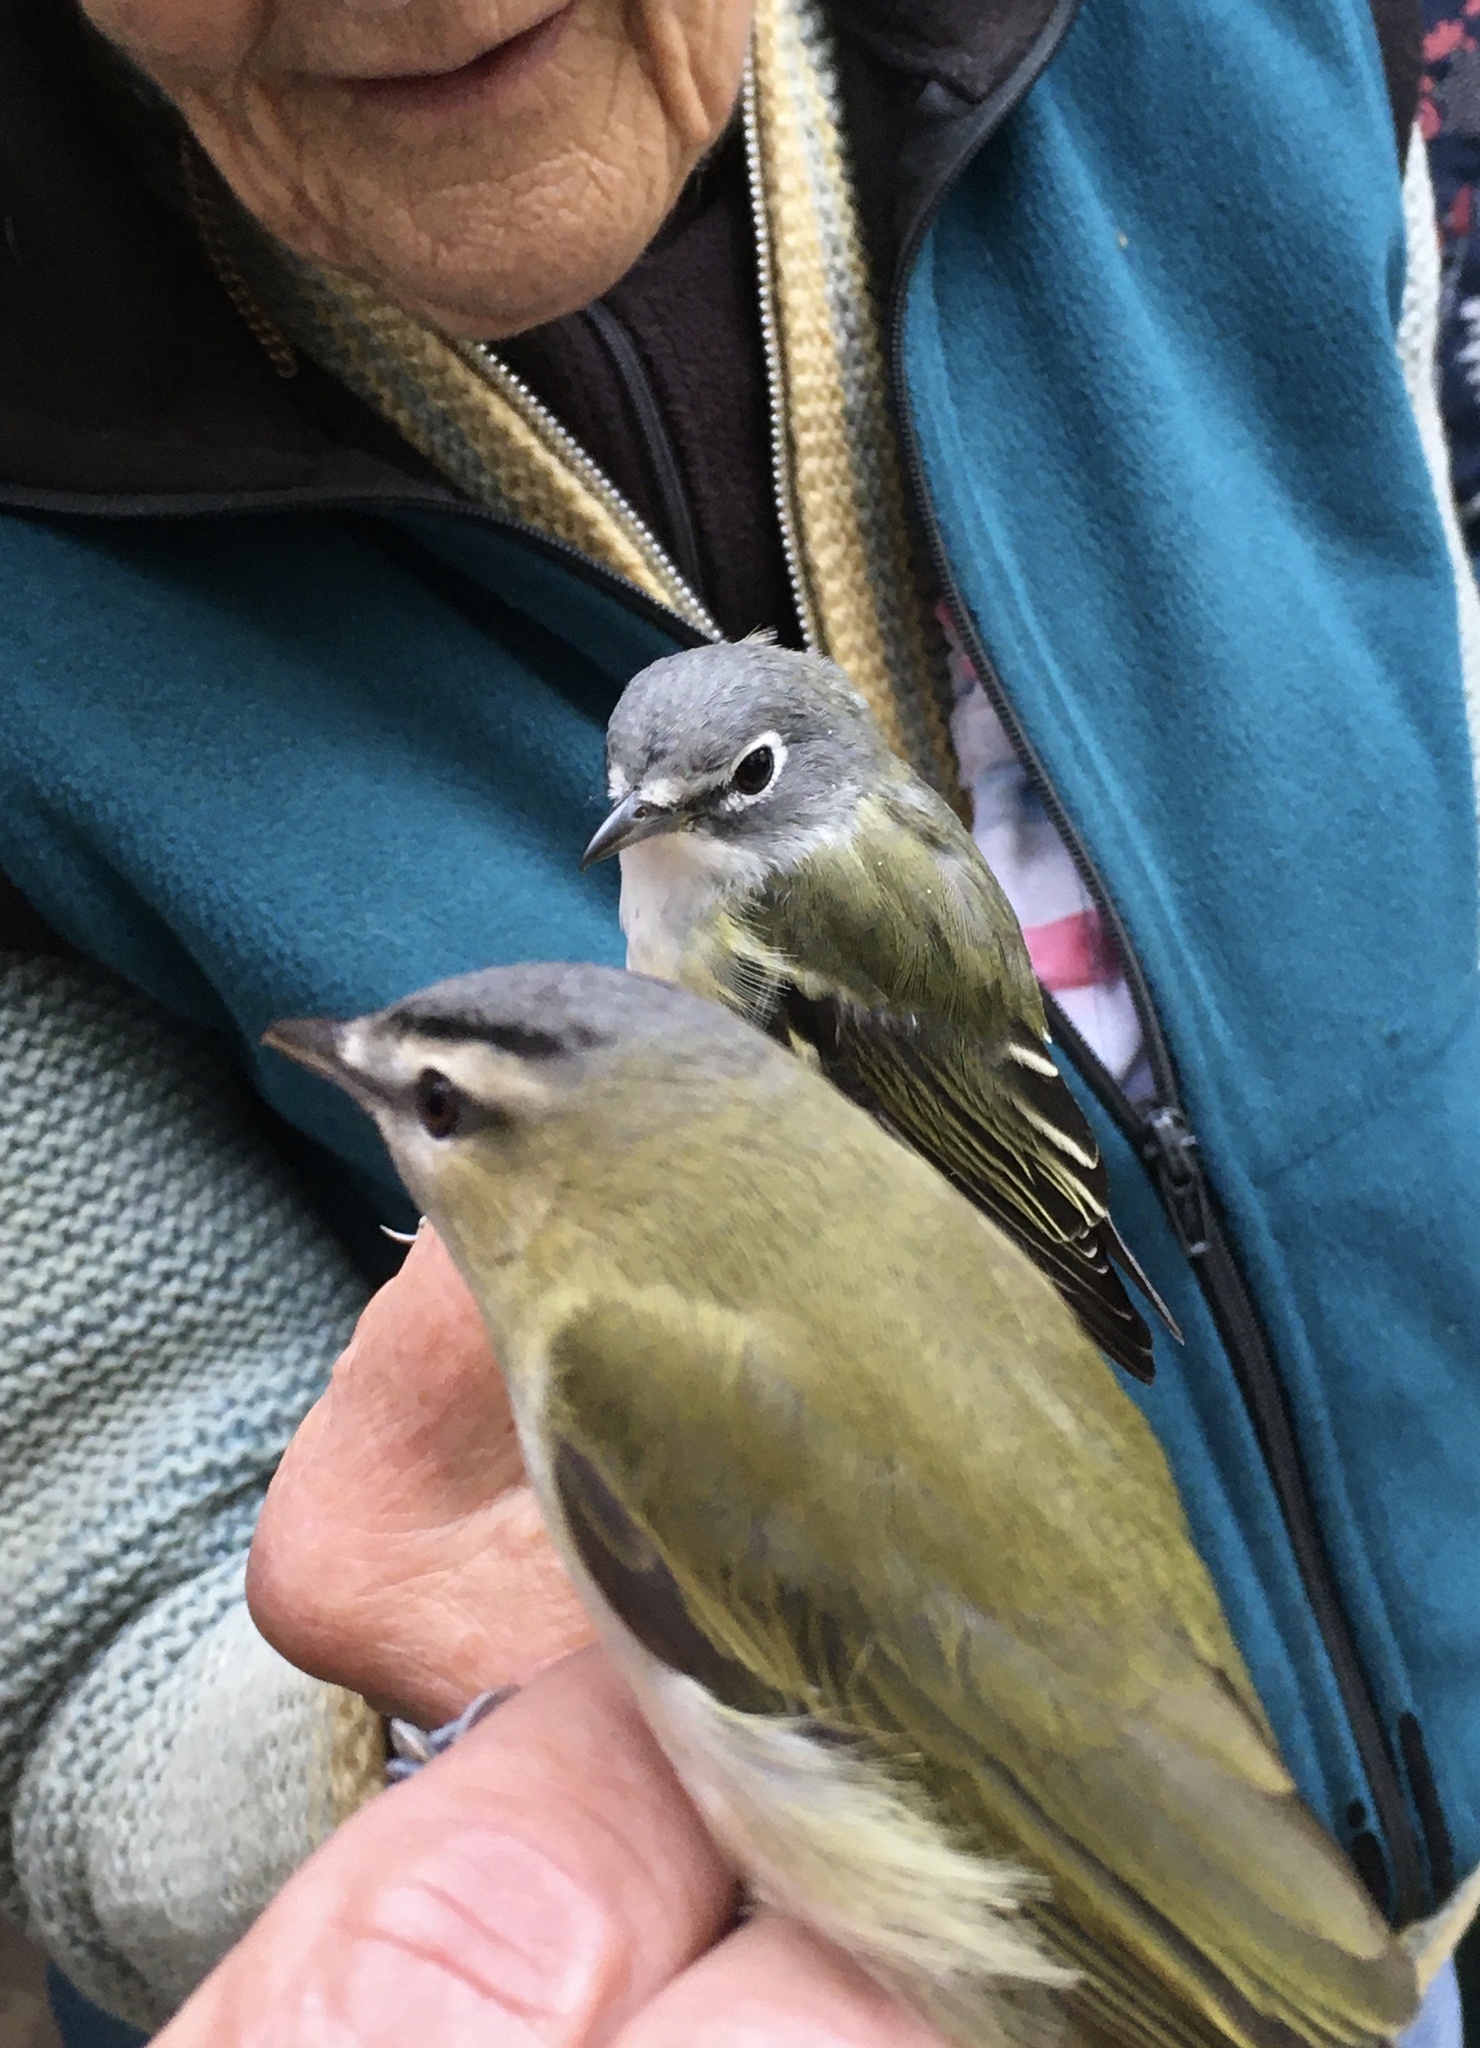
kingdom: Animalia
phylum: Chordata
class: Aves
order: Passeriformes
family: Vireonidae
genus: Vireo
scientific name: Vireo olivaceus
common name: Red-eyed vireo
